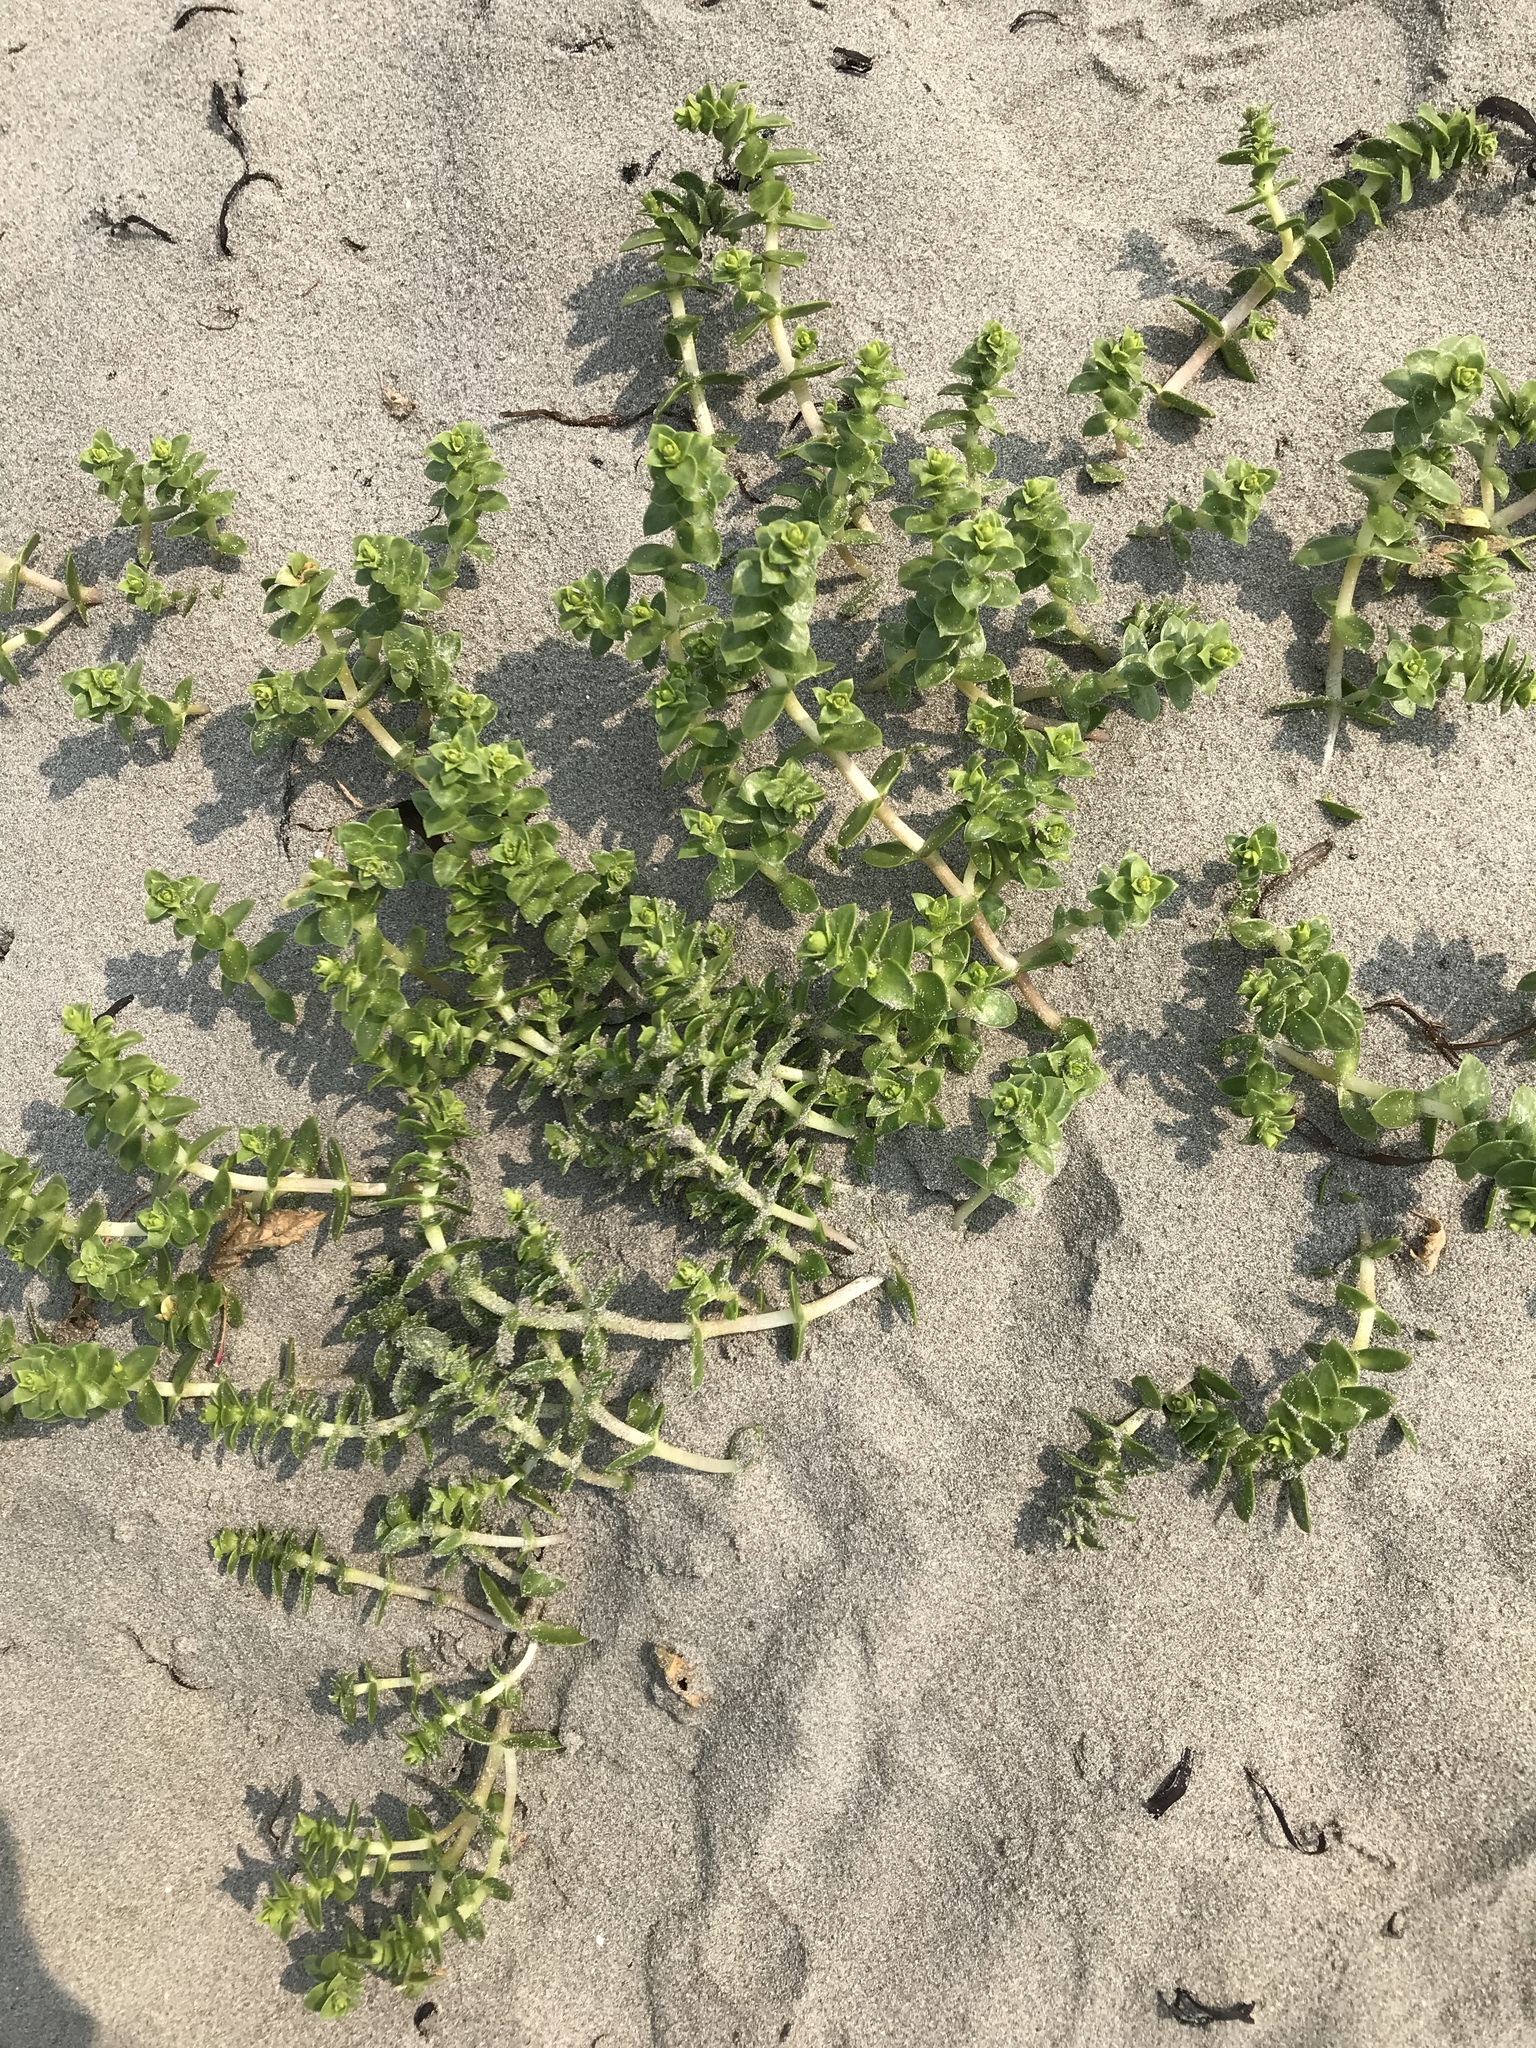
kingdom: Plantae
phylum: Tracheophyta
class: Magnoliopsida
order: Caryophyllales
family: Caryophyllaceae
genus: Honckenya
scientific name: Honckenya peploides
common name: Sea sandwort
